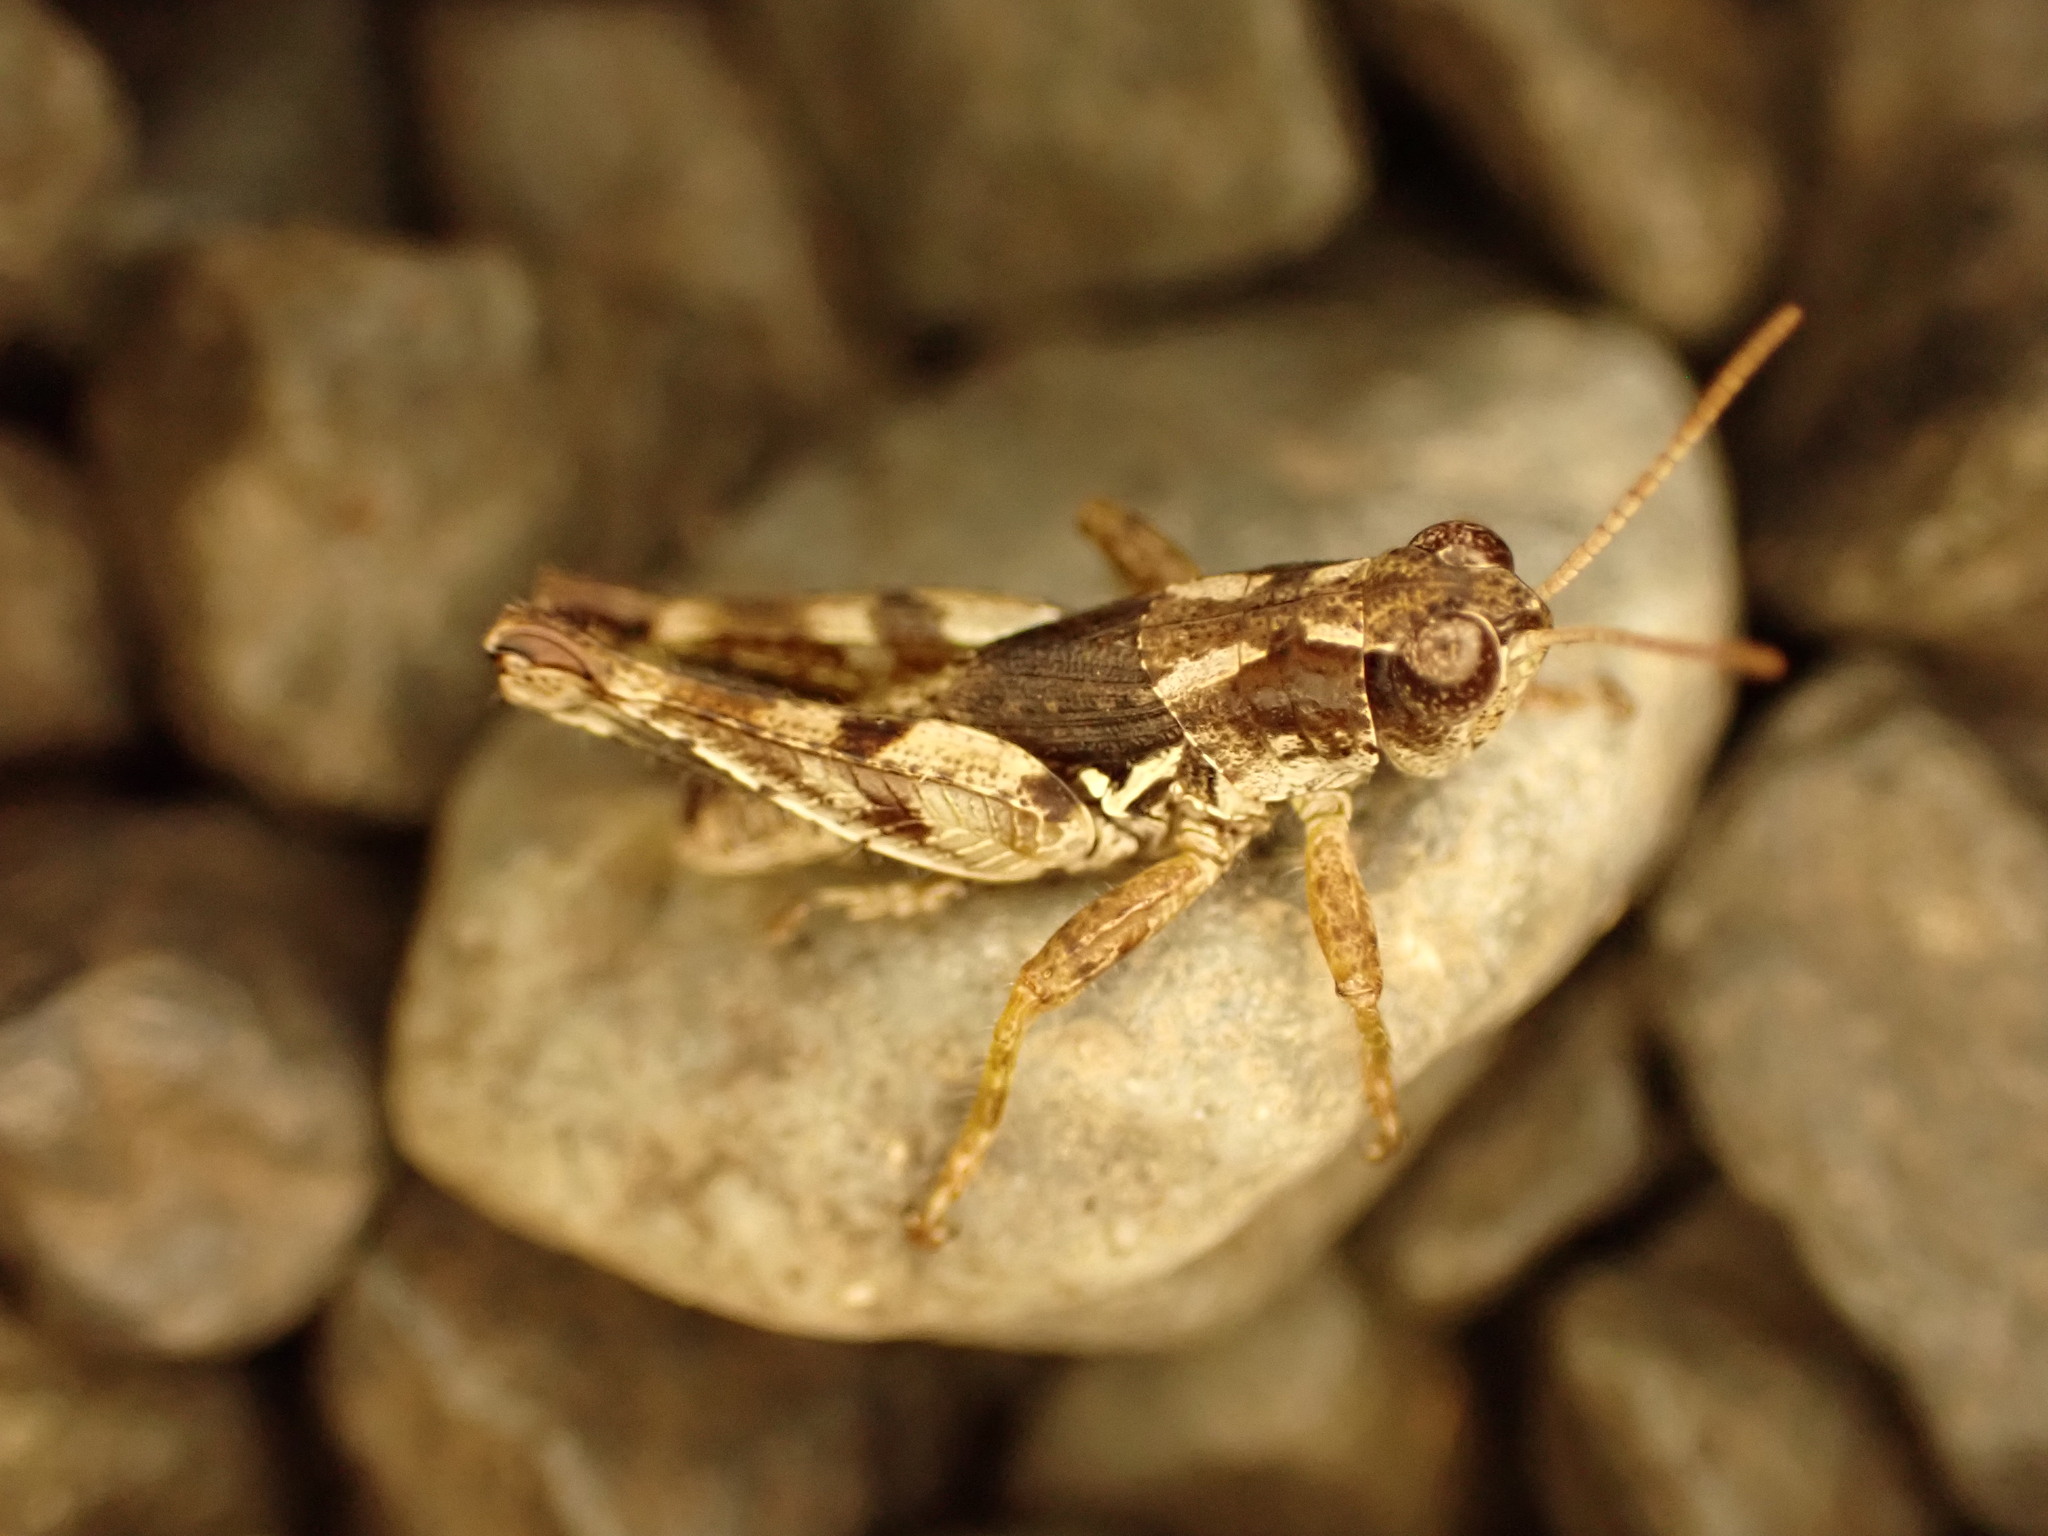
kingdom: Animalia
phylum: Arthropoda
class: Insecta
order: Orthoptera
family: Acrididae
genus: Phaulacridium
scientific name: Phaulacridium marginale
